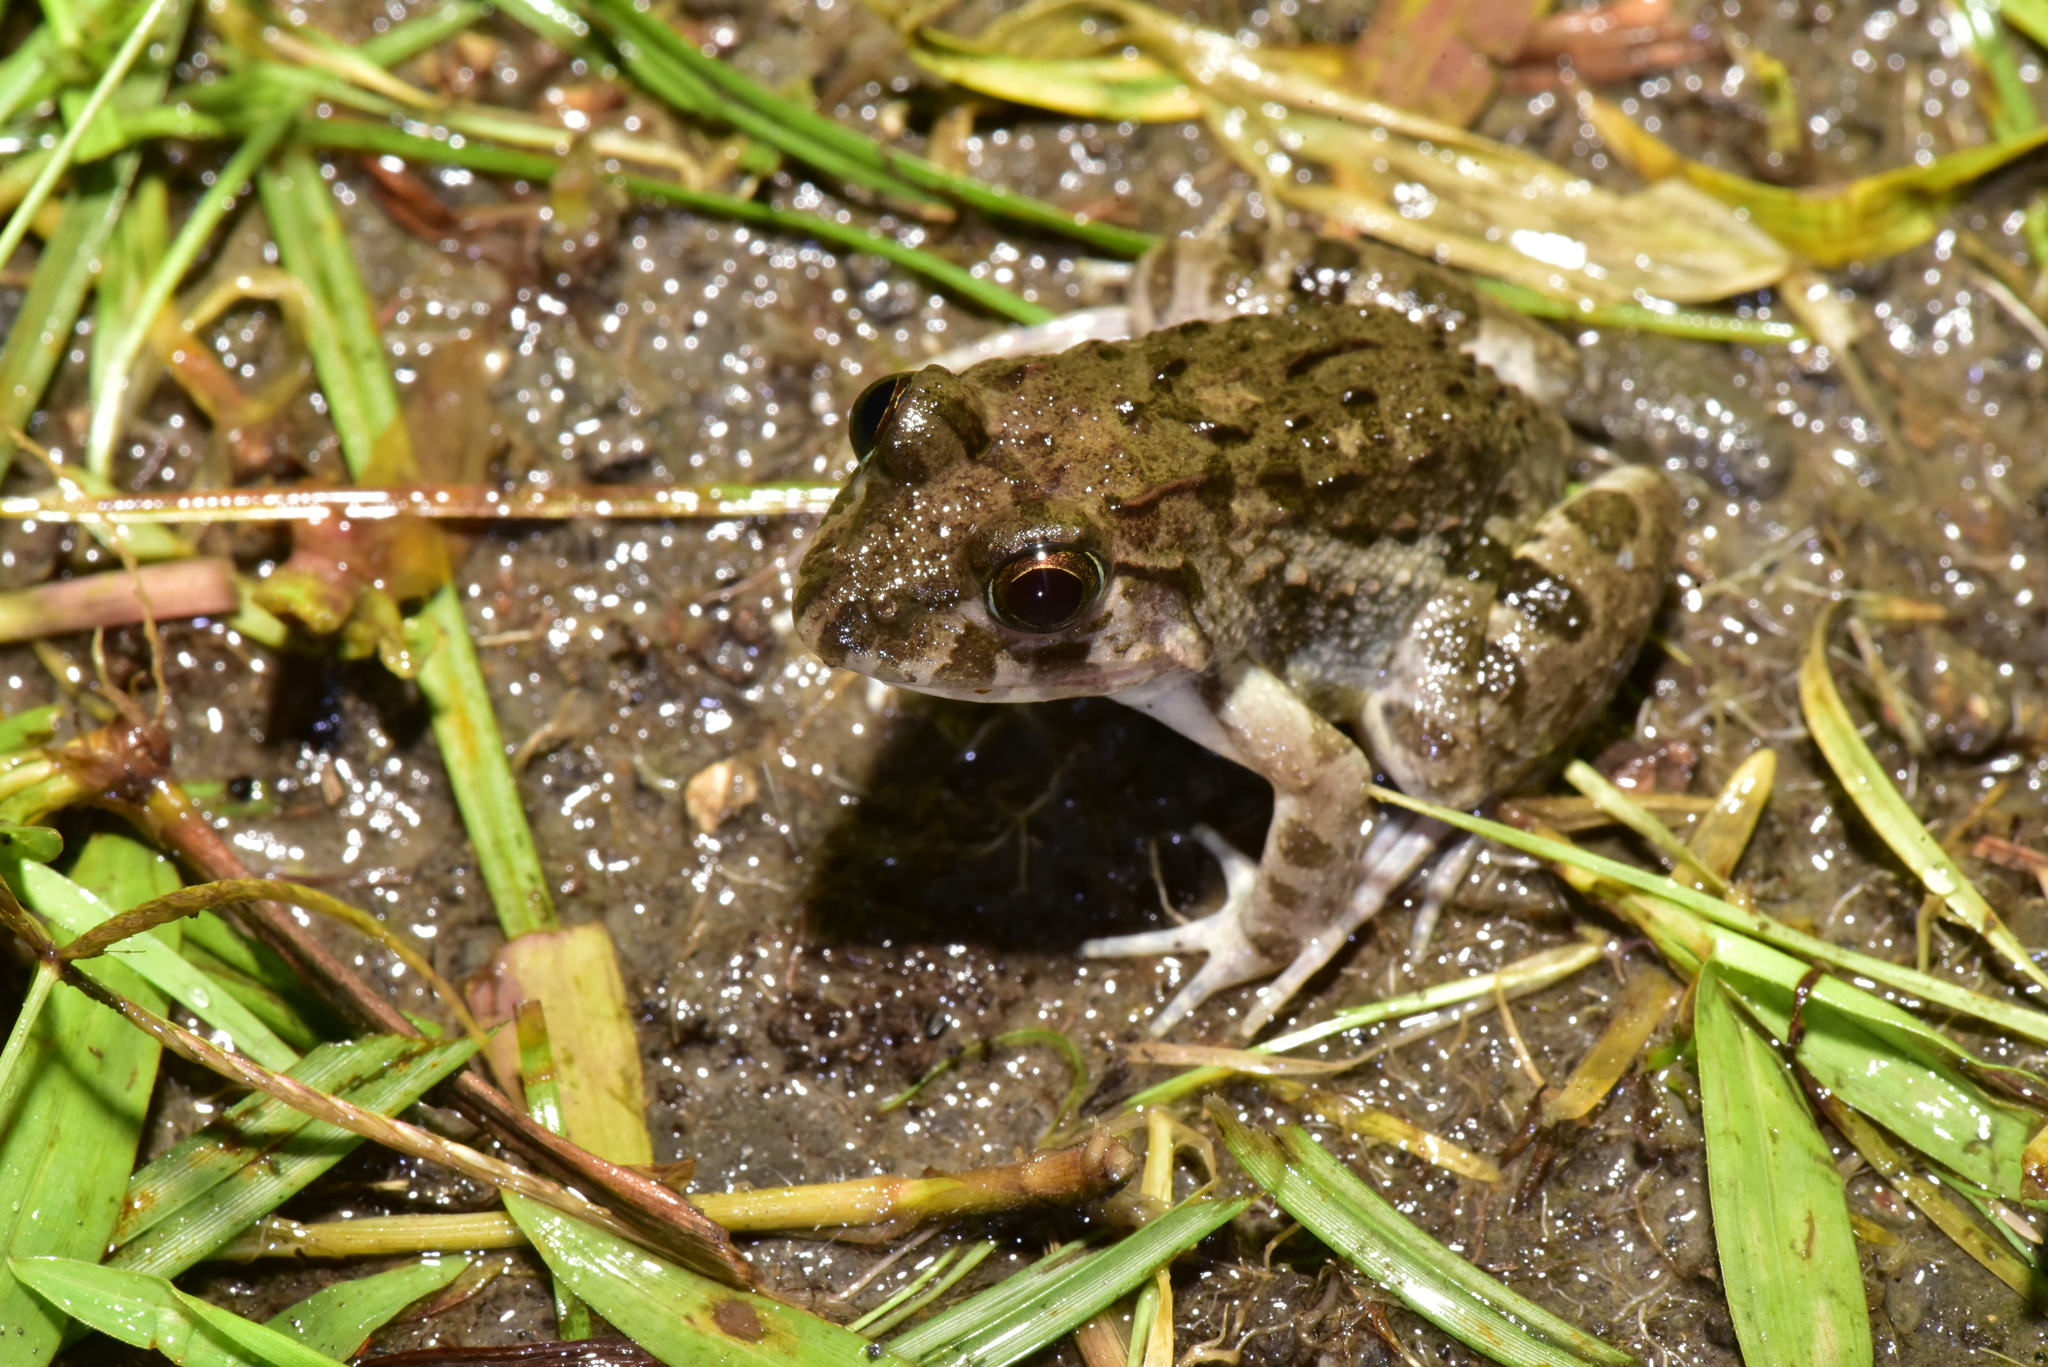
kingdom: Animalia
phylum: Chordata
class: Amphibia
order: Anura
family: Dicroglossidae
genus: Fejervarya
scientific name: Fejervarya limnocharis
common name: Asian grass frog/common pond frog/field frog/grass frog/indian rice frog
